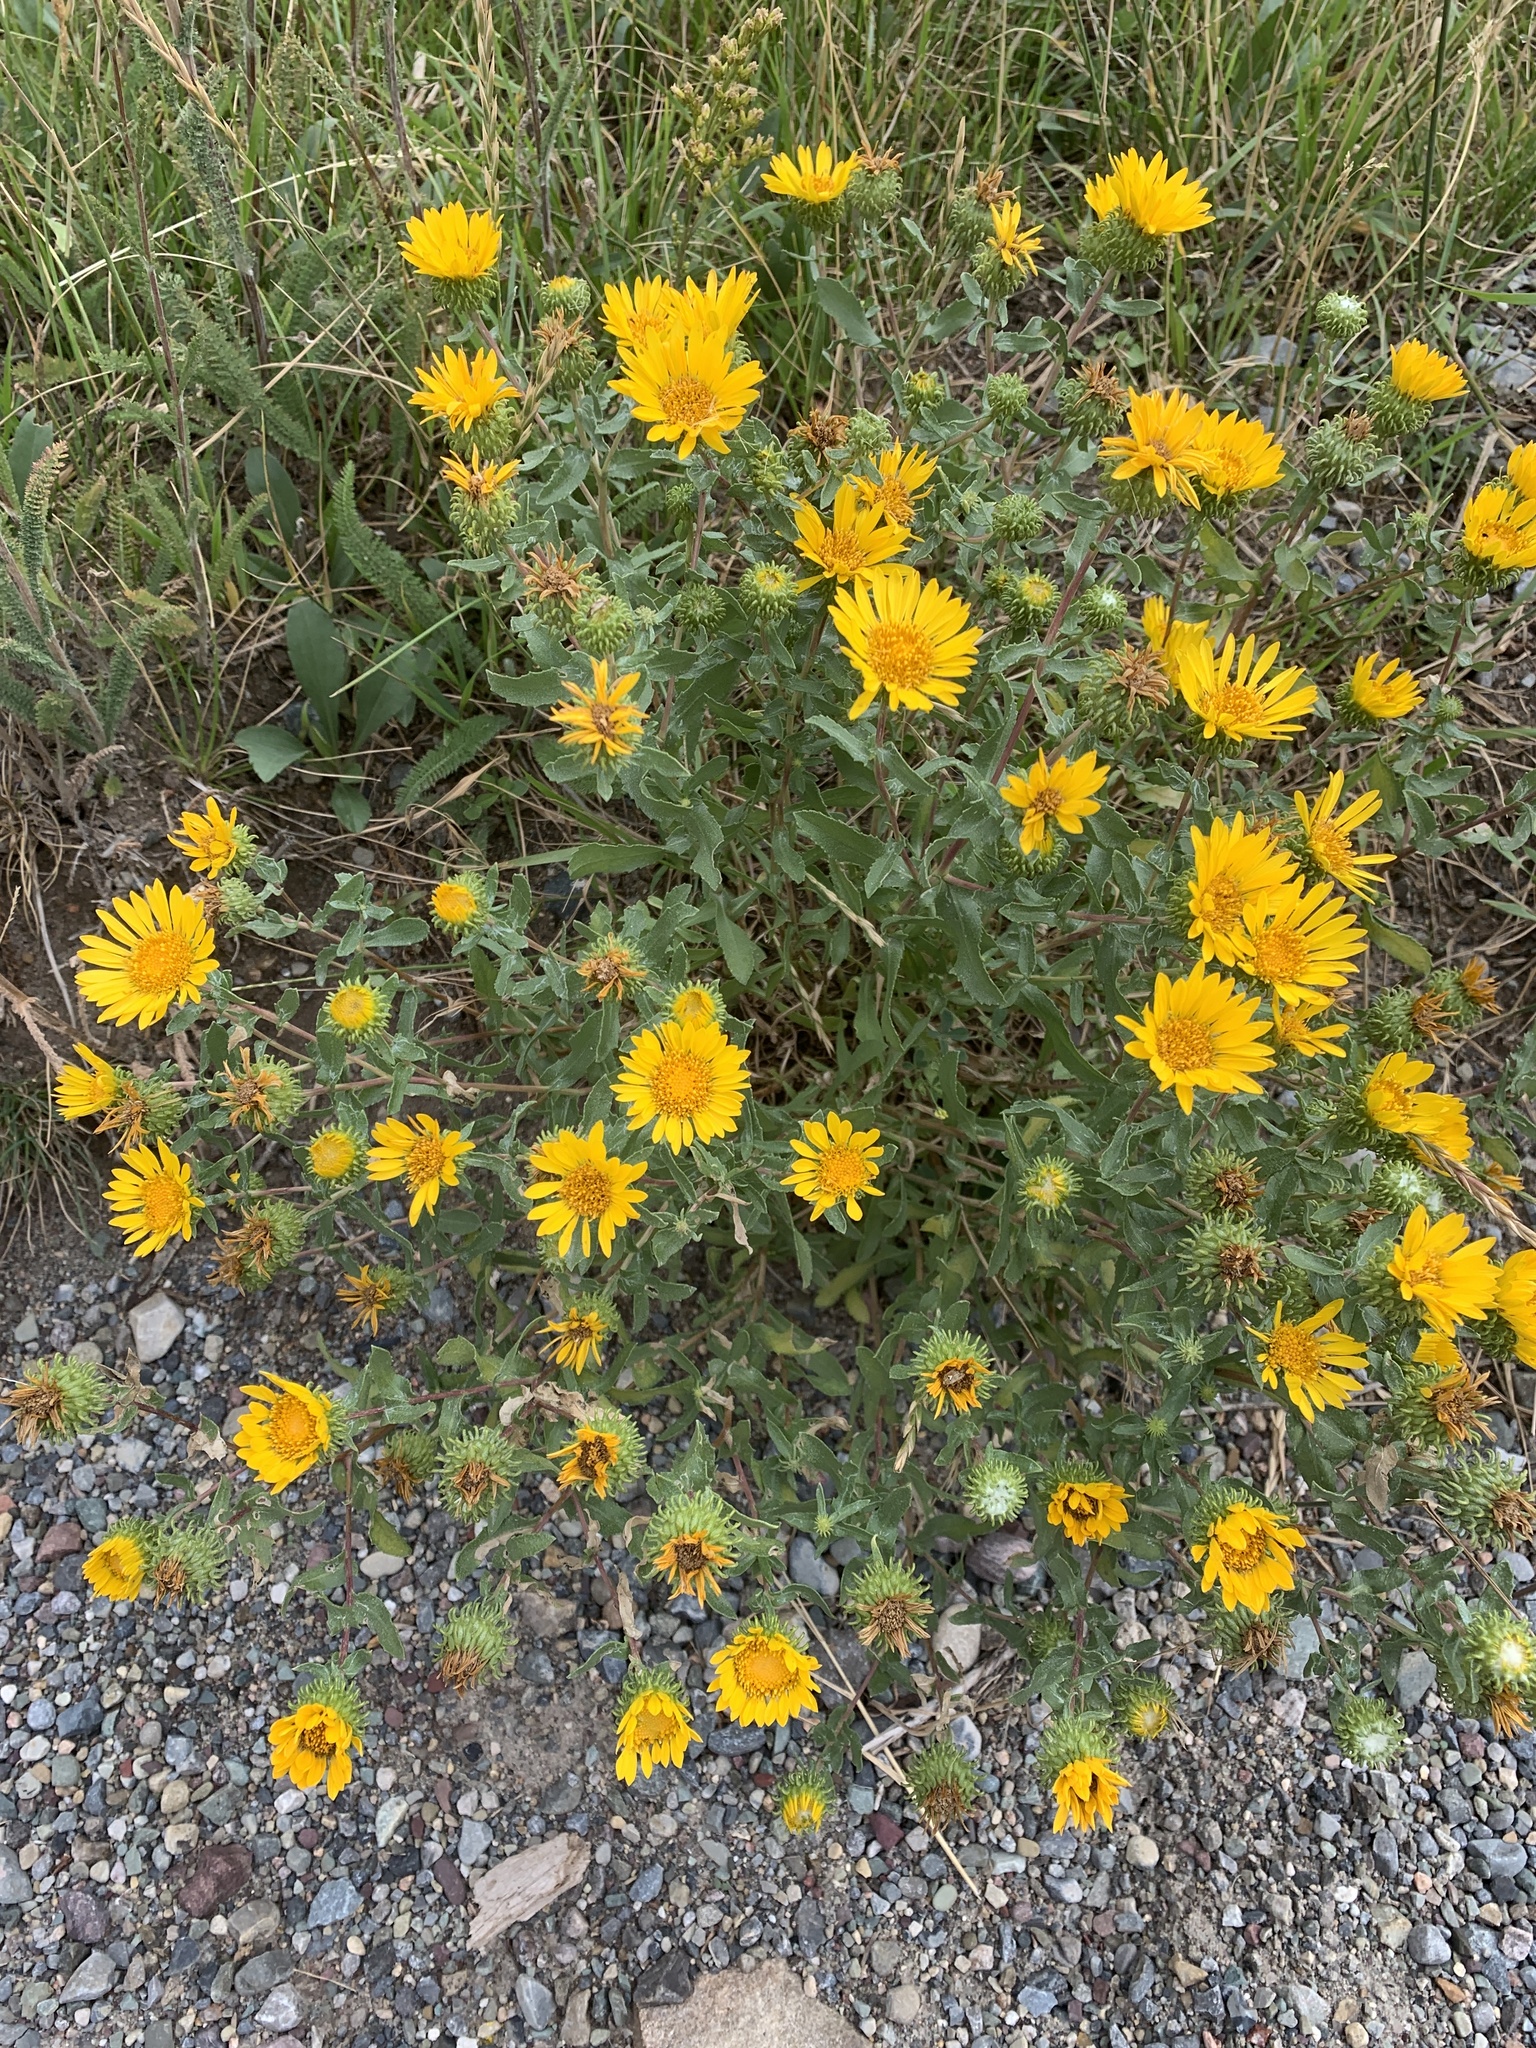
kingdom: Plantae
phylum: Tracheophyta
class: Magnoliopsida
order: Asterales
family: Asteraceae
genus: Grindelia
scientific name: Grindelia squarrosa
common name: Curly-cup gumweed
